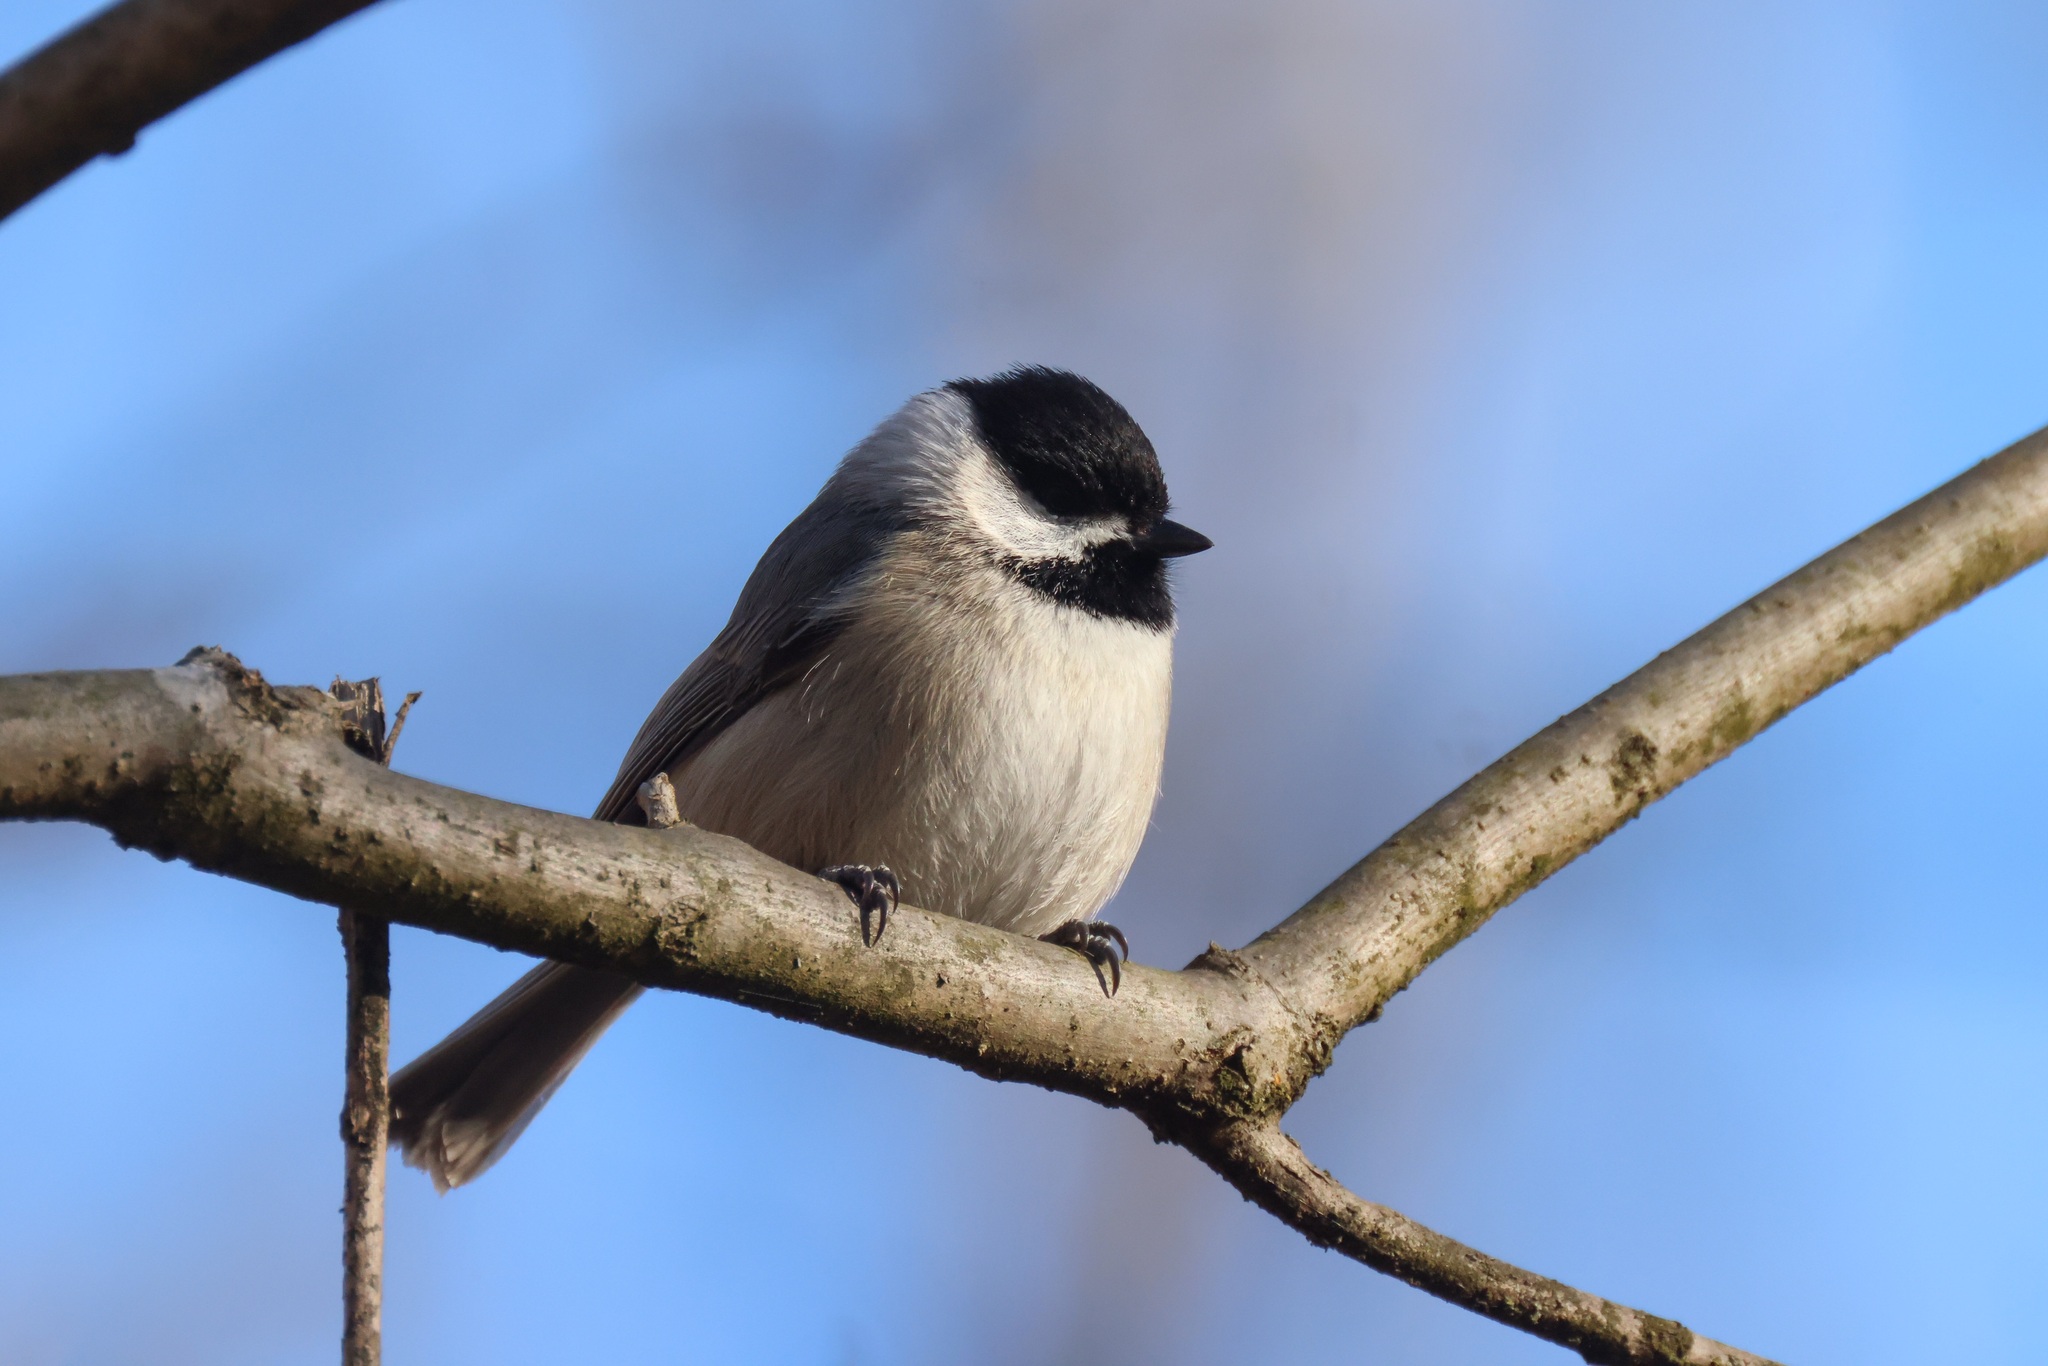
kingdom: Animalia
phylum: Chordata
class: Aves
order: Passeriformes
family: Paridae
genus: Poecile
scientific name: Poecile carolinensis
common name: Carolina chickadee
